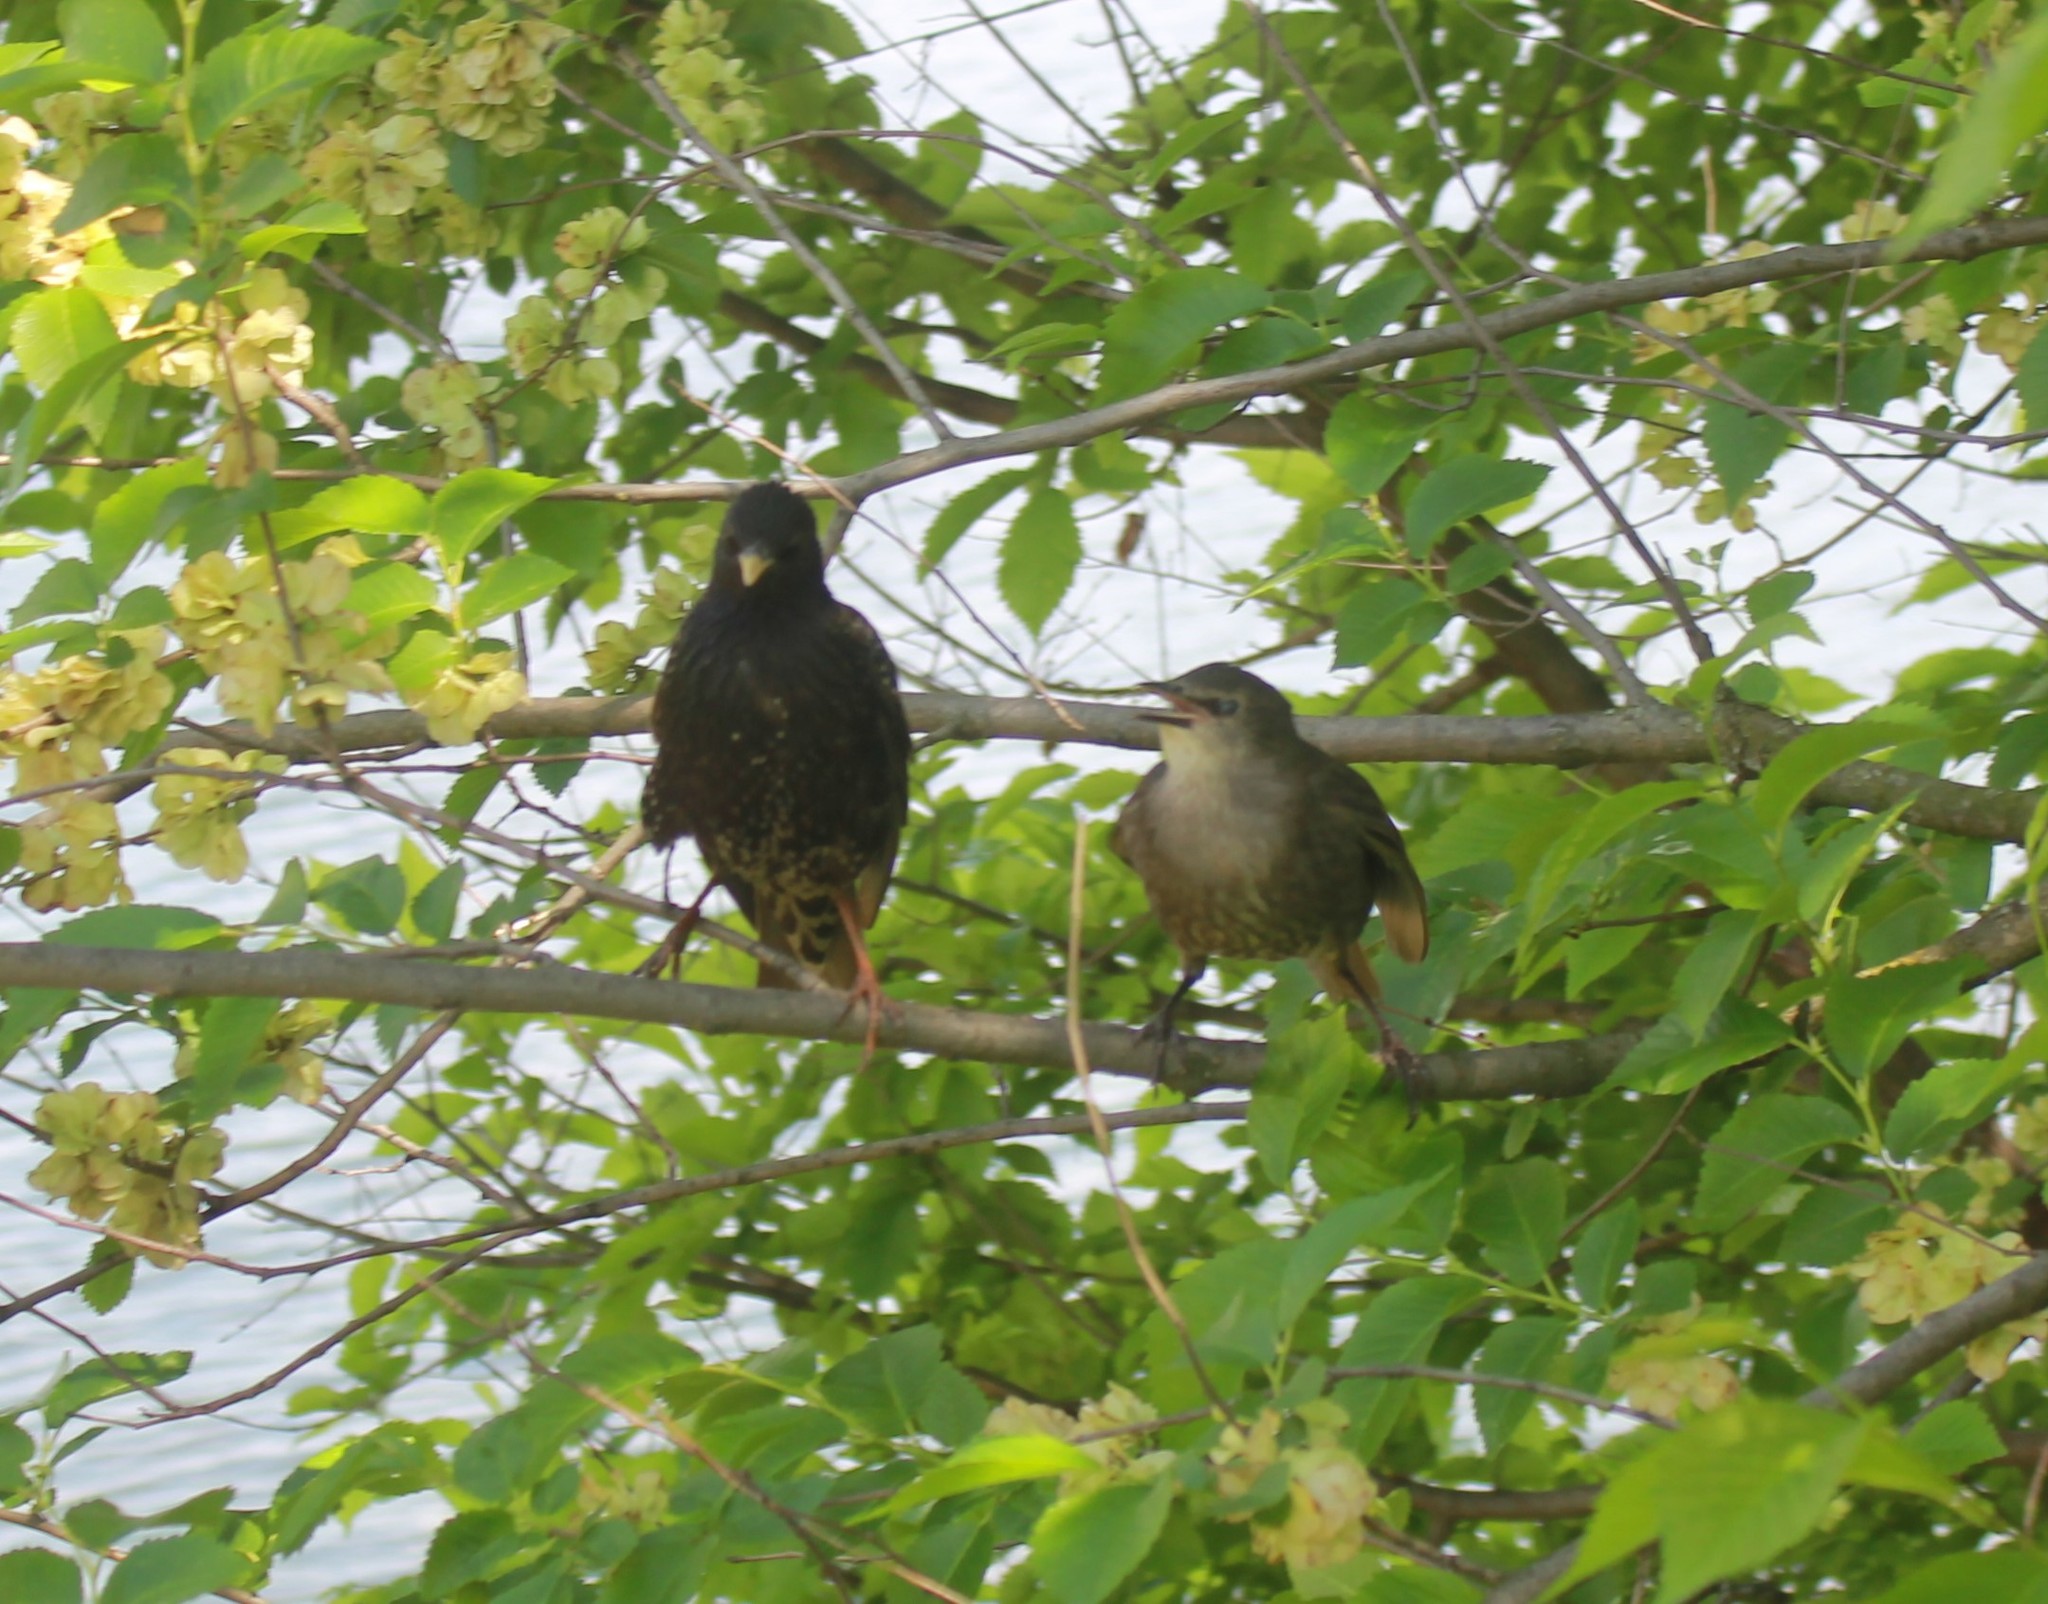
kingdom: Animalia
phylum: Chordata
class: Aves
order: Passeriformes
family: Sturnidae
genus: Sturnus
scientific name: Sturnus vulgaris
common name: Common starling
